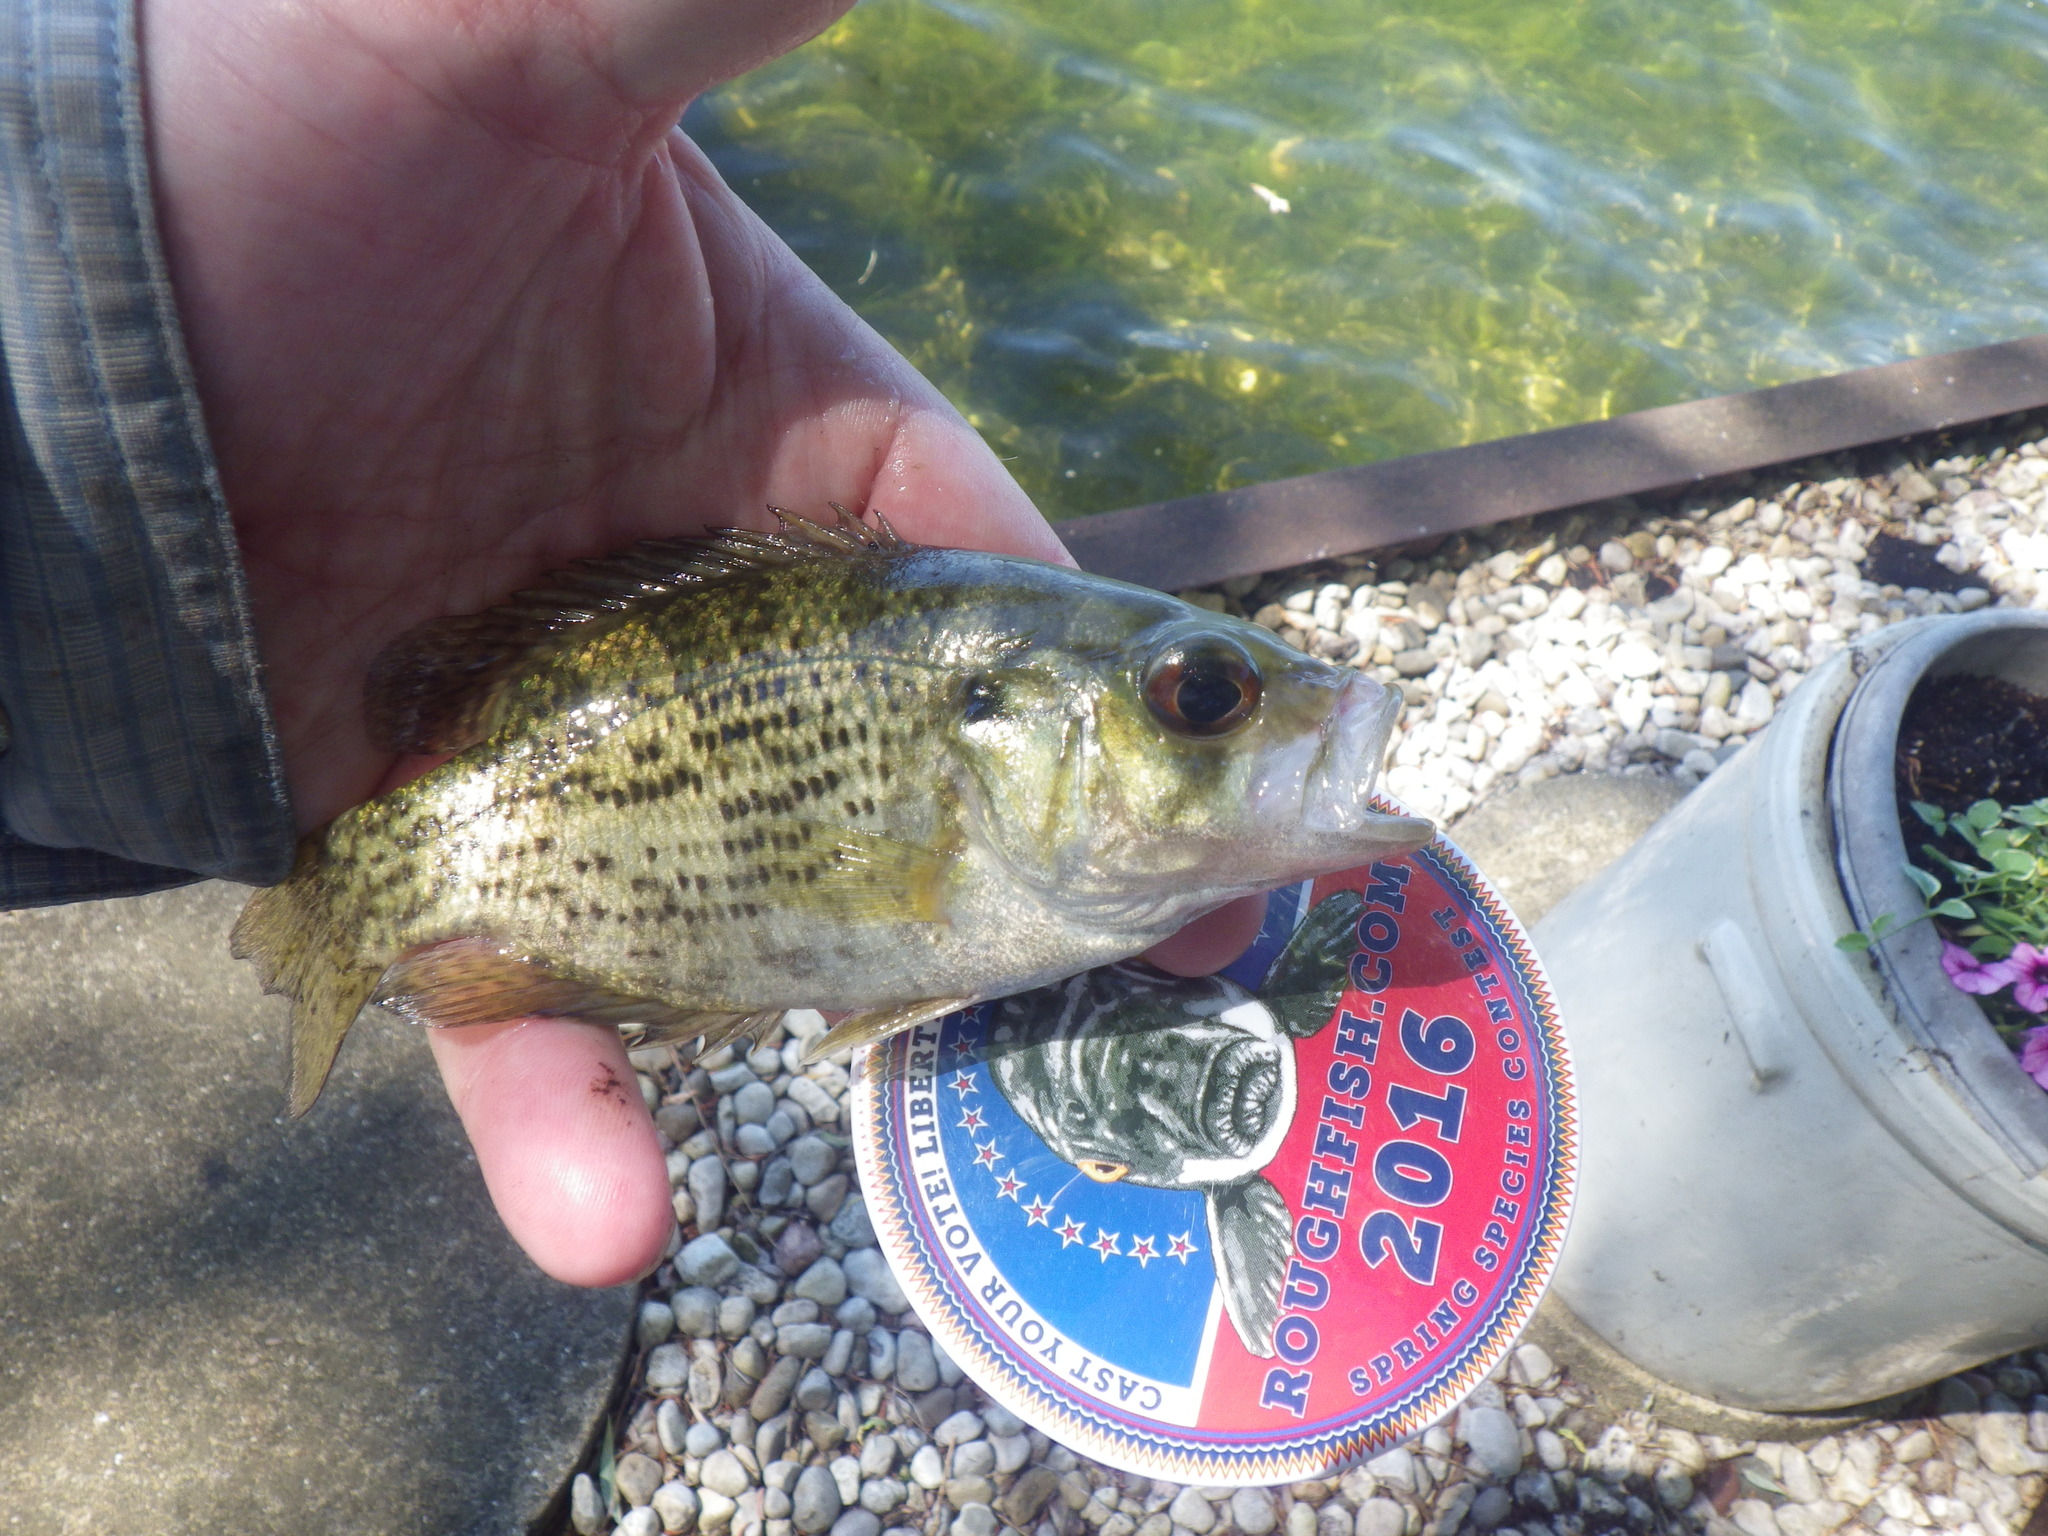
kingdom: Animalia
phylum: Chordata
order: Perciformes
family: Centrarchidae
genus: Ambloplites
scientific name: Ambloplites rupestris
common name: Rock bass
